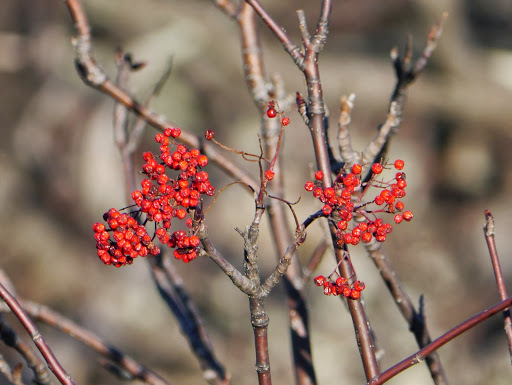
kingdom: Plantae
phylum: Tracheophyta
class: Magnoliopsida
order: Aquifoliales
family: Aquifoliaceae
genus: Ilex
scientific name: Ilex verticillata
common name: Virginia winterberry
